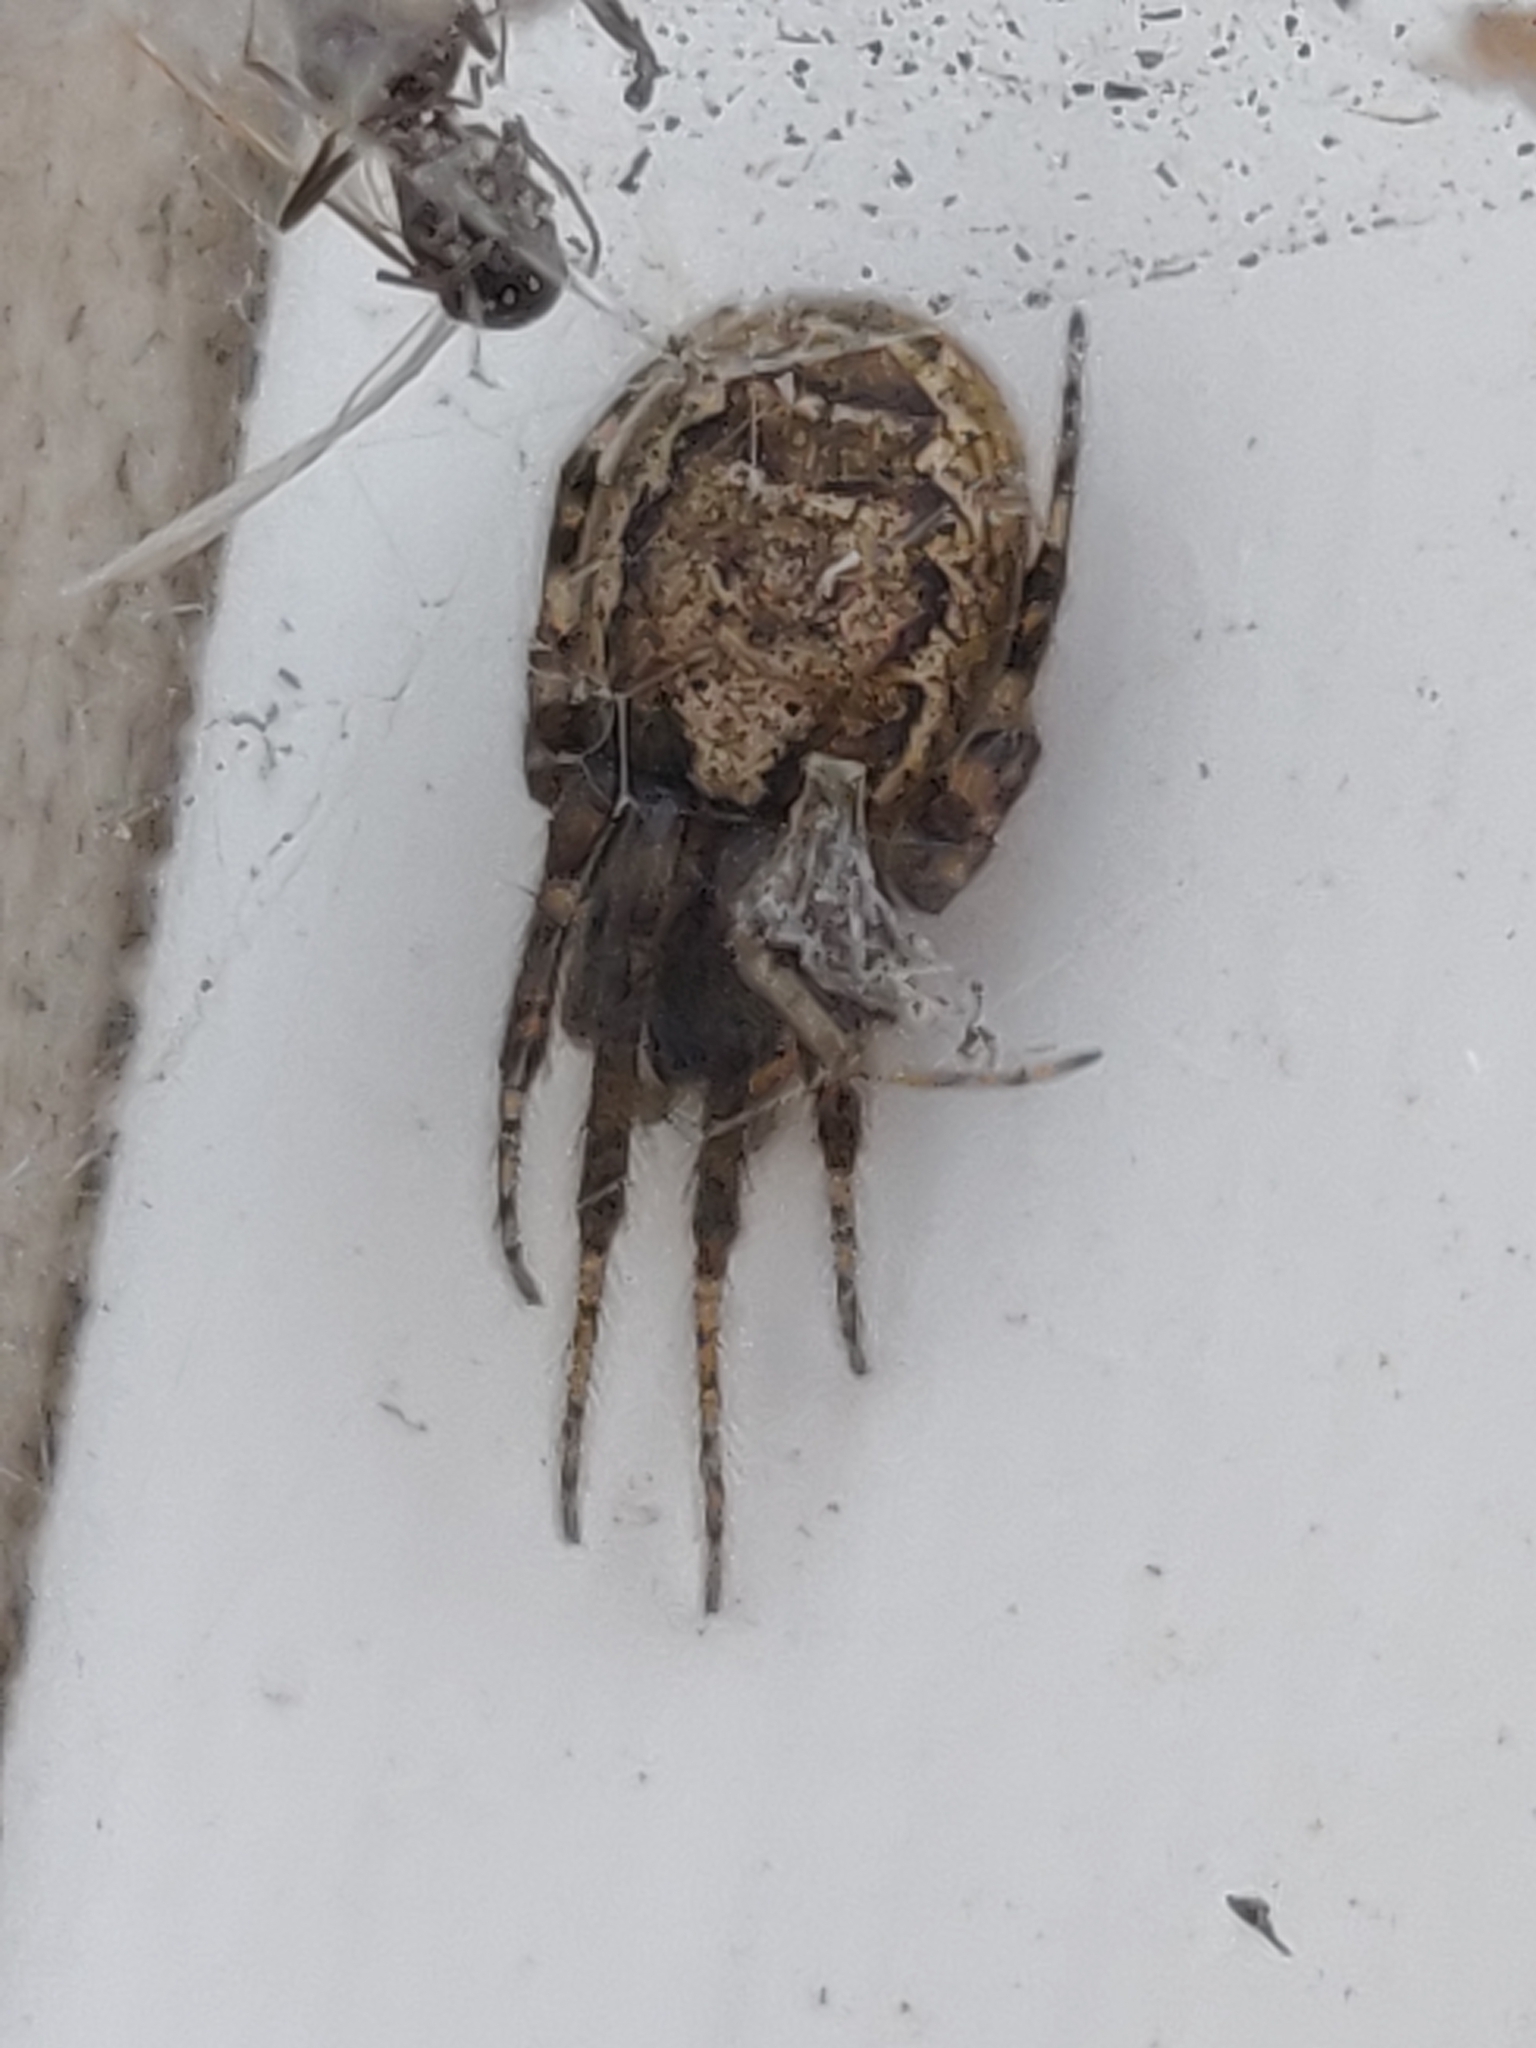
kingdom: Animalia
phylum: Arthropoda
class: Arachnida
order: Araneae
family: Araneidae
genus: Zygiella
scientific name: Zygiella x-notata
